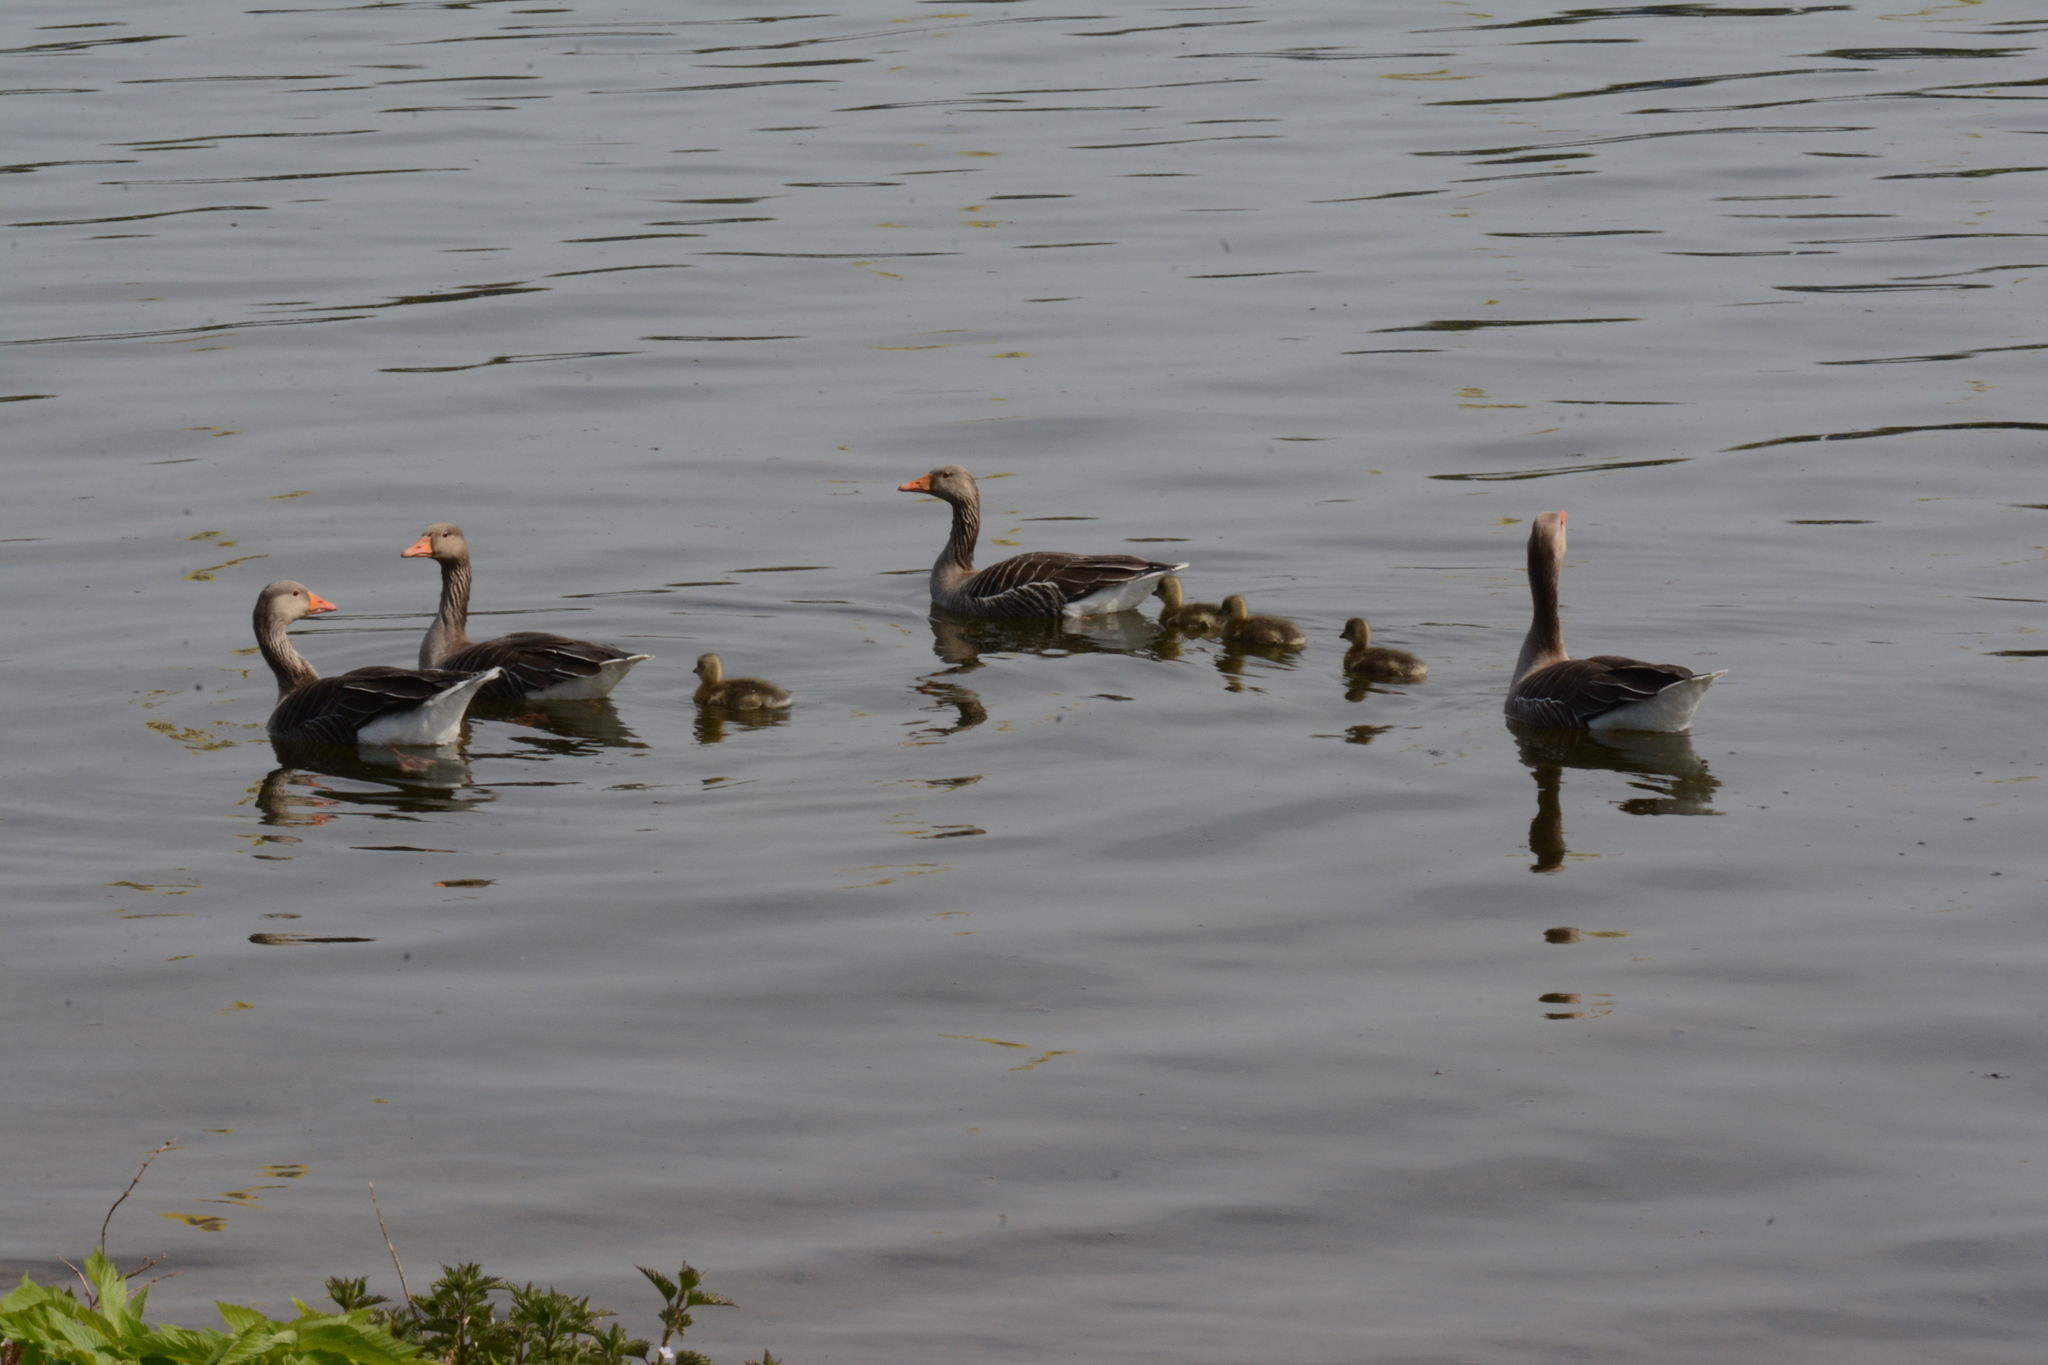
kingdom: Animalia
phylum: Chordata
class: Aves
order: Anseriformes
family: Anatidae
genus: Anser
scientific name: Anser anser
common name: Greylag goose
